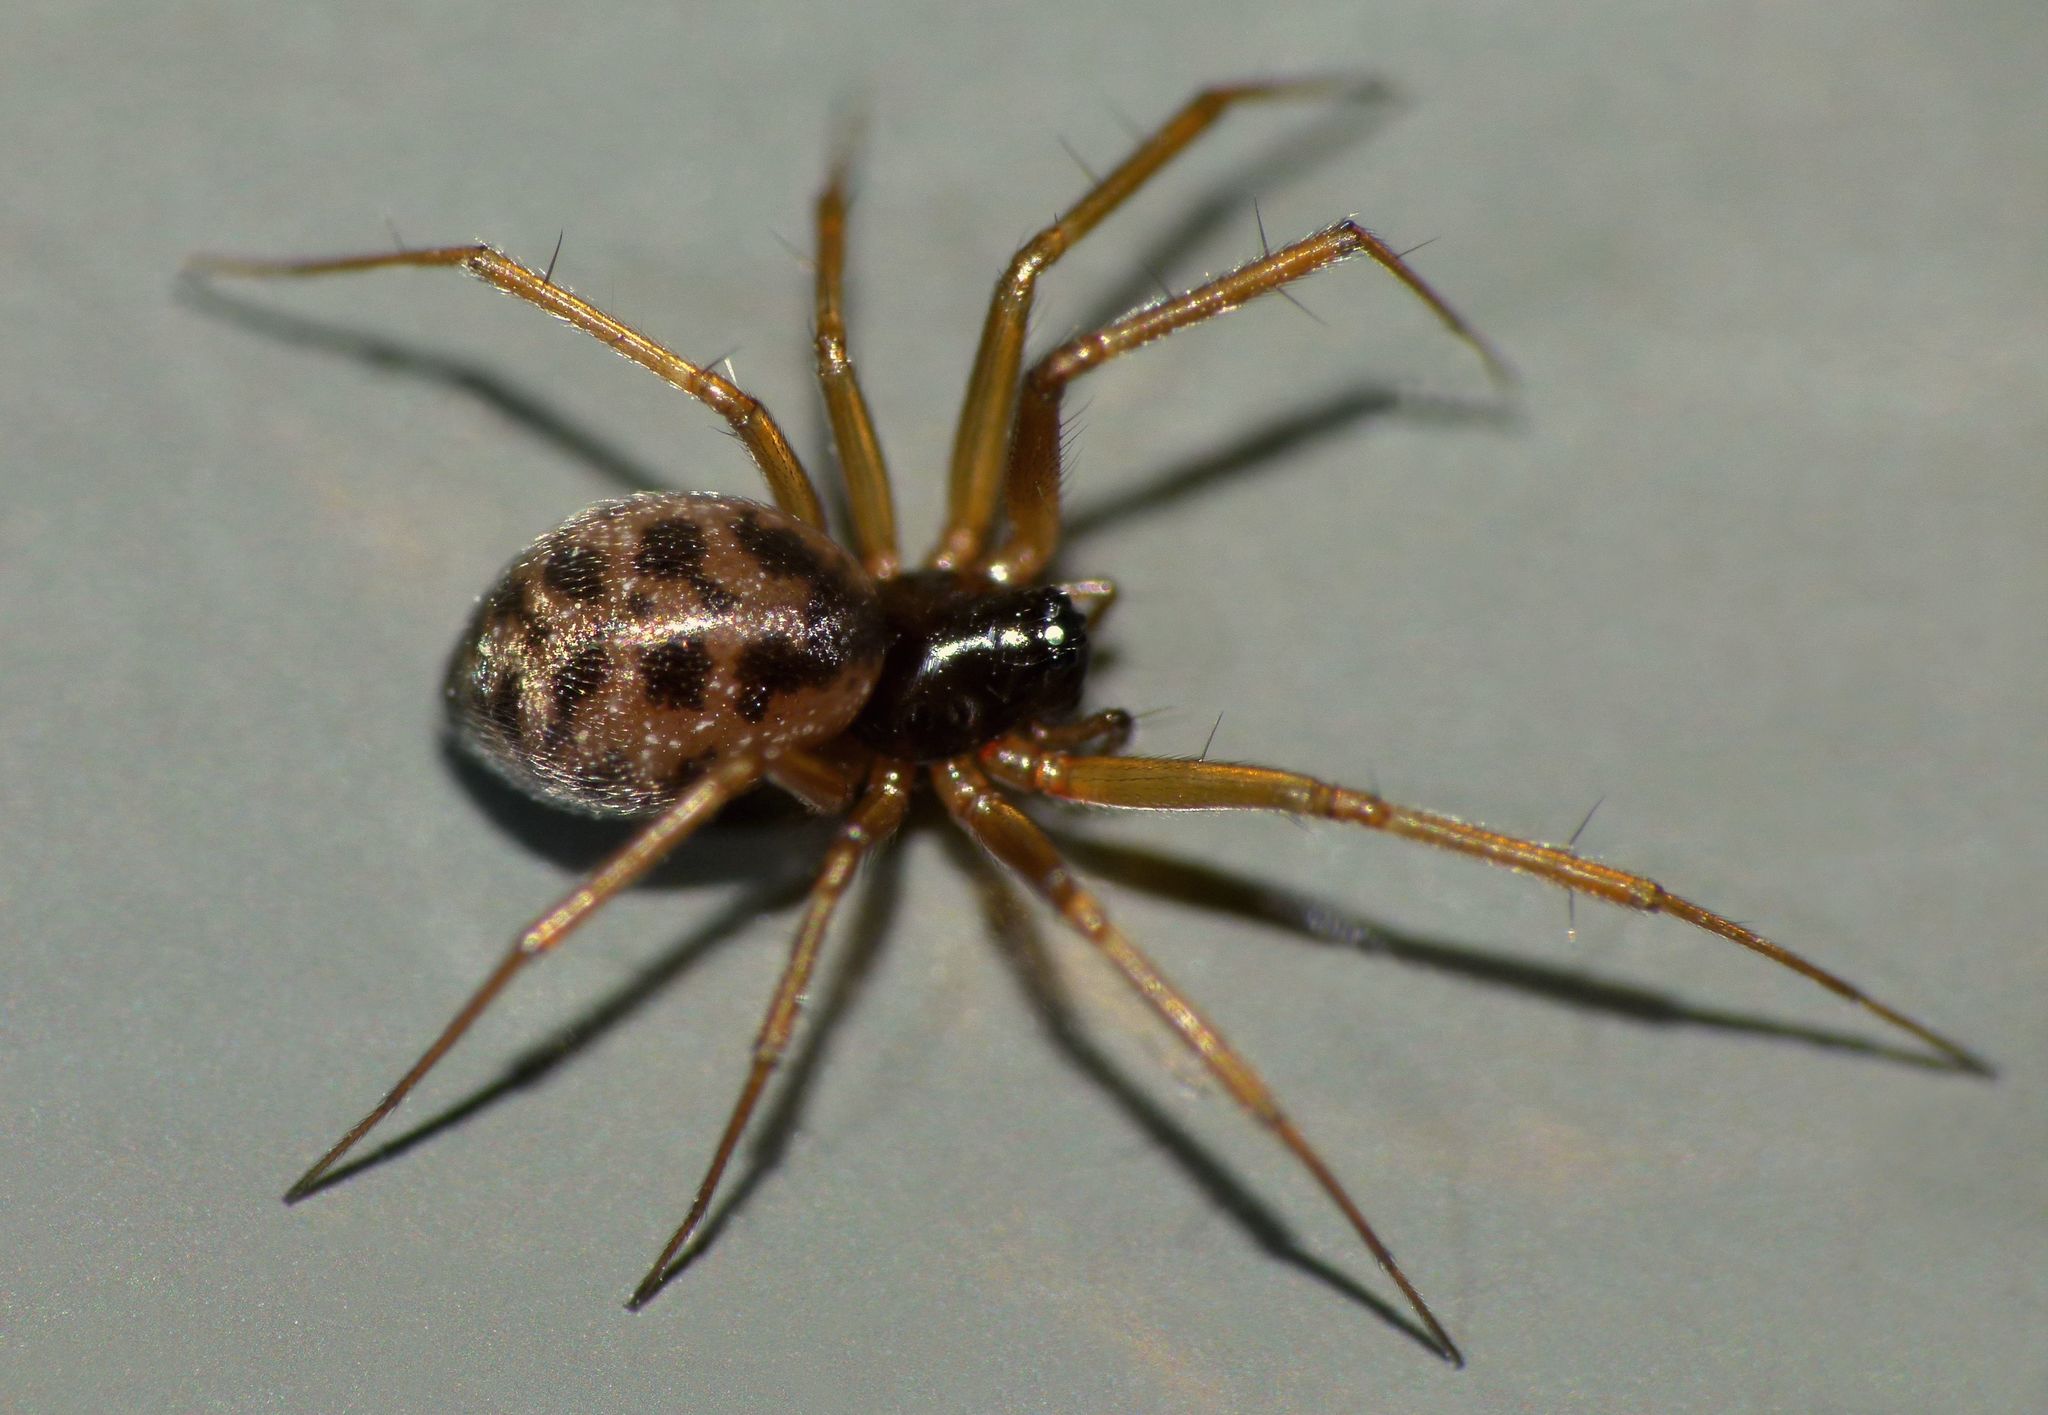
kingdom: Animalia
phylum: Arthropoda
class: Arachnida
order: Araneae
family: Linyphiidae
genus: Tenuiphantes
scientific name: Tenuiphantes tenuis
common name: Dwarf weaver
